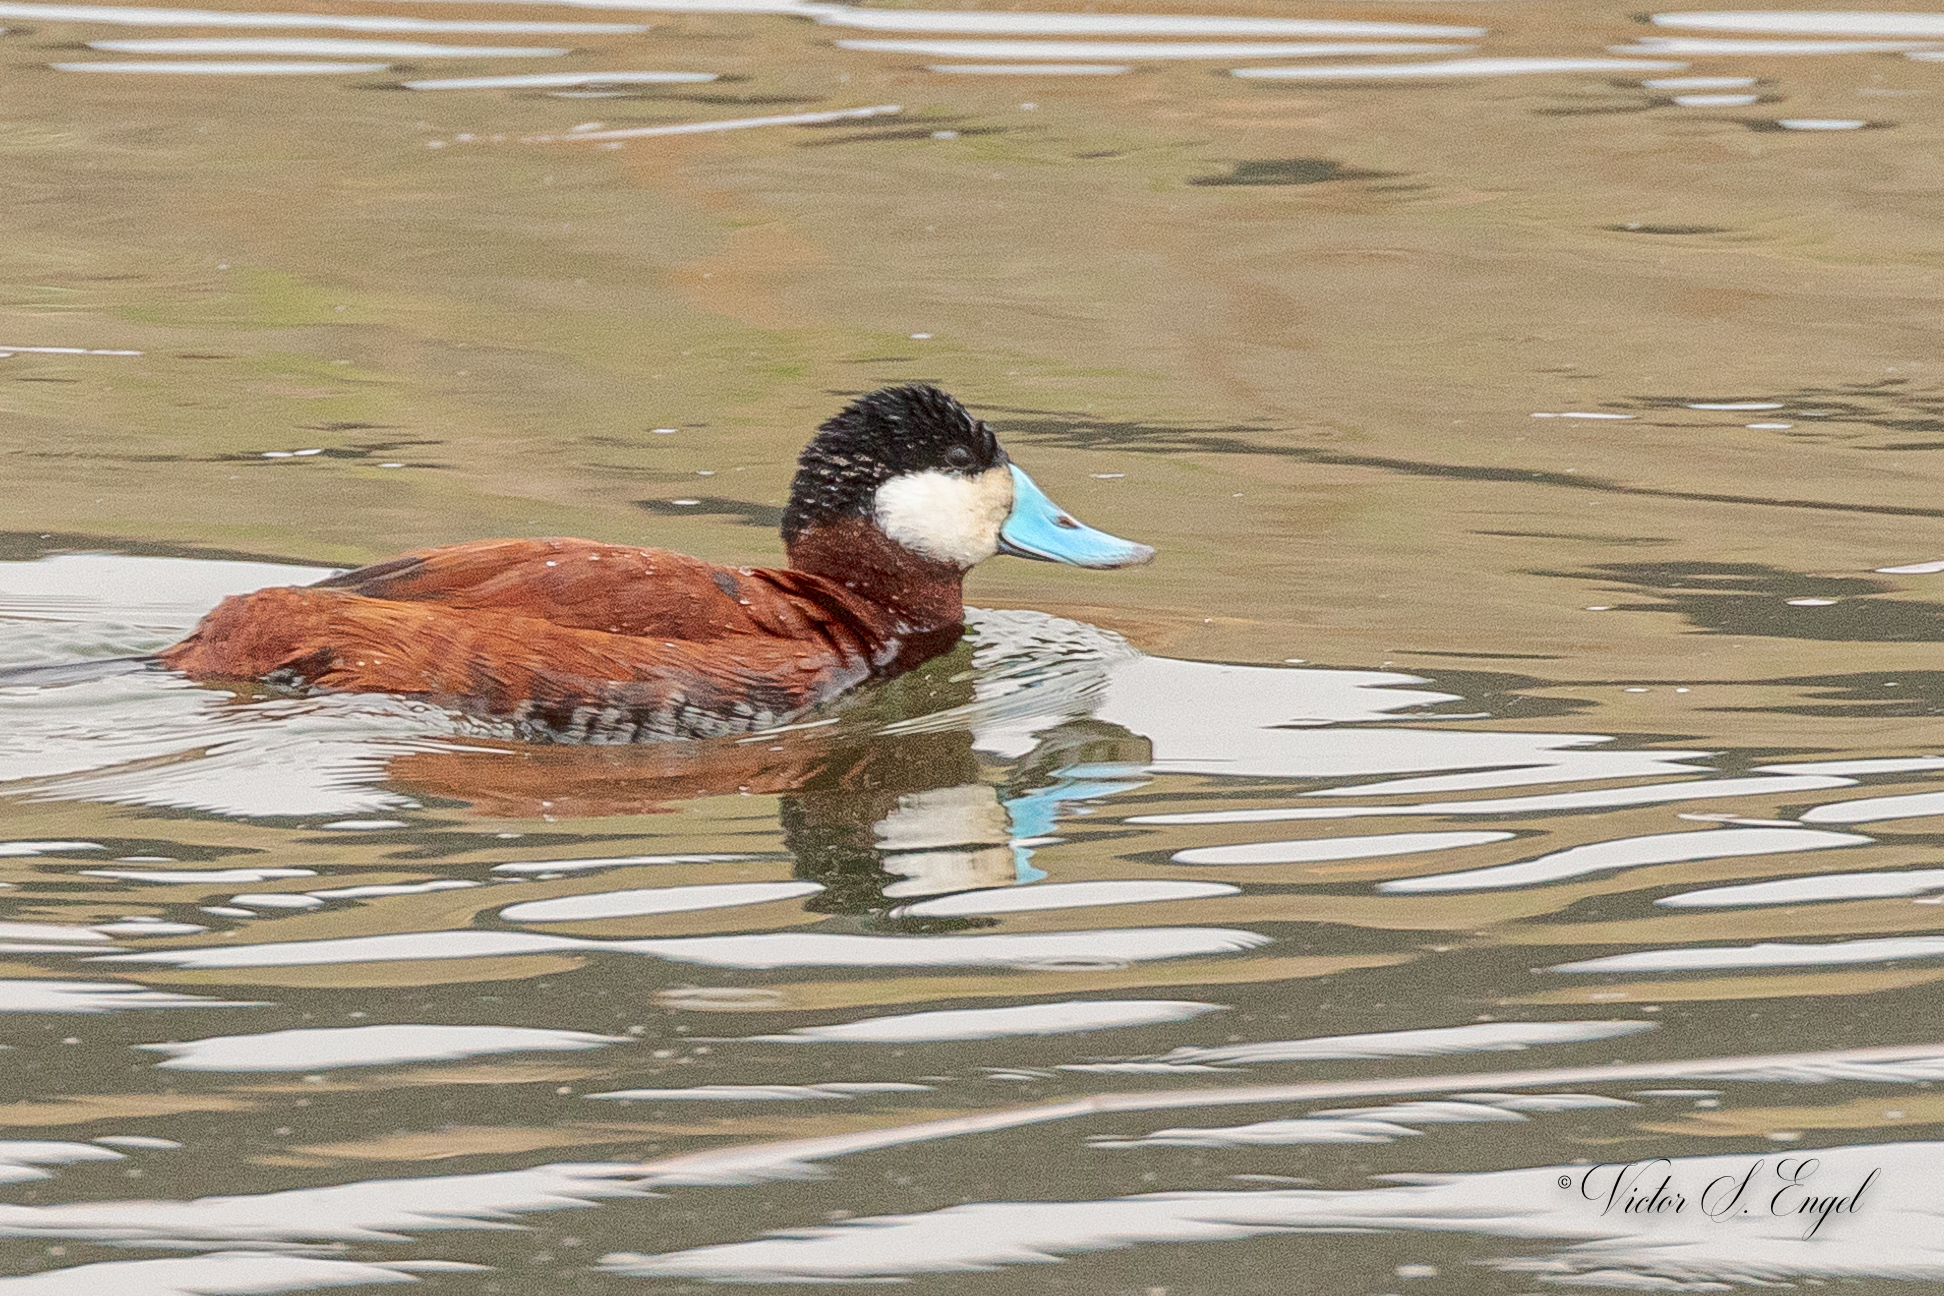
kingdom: Animalia
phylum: Chordata
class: Aves
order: Anseriformes
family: Anatidae
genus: Oxyura
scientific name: Oxyura jamaicensis
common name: Ruddy duck
